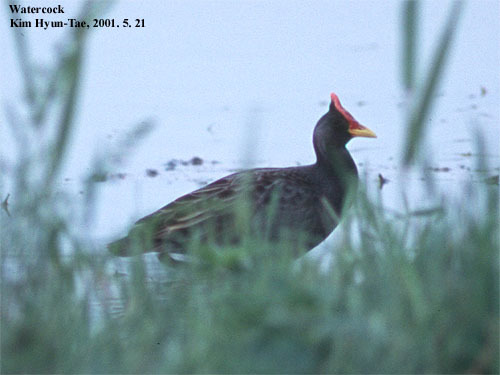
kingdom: Animalia
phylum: Chordata
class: Aves
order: Gruiformes
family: Rallidae
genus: Gallicrex
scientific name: Gallicrex cinerea
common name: Watercock
